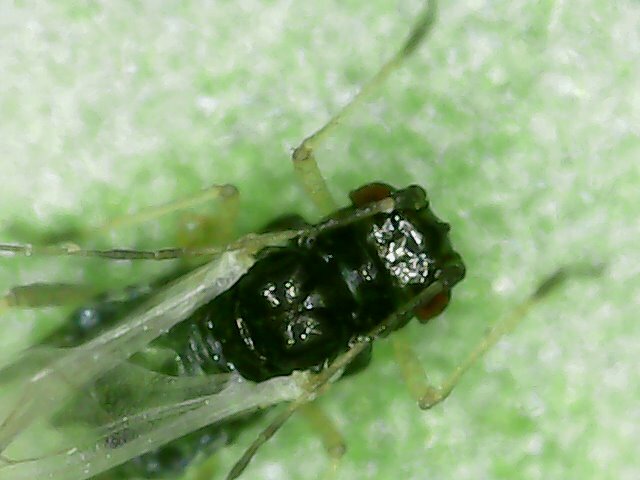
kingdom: Animalia
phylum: Arthropoda
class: Insecta
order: Hemiptera
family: Aphididae
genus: Aphis
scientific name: Aphis gossypii
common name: Melon aphid
